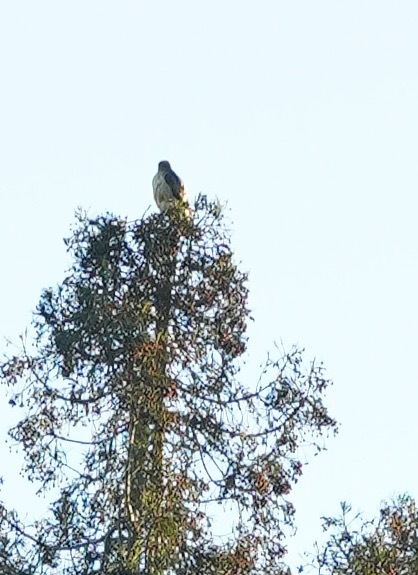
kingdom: Animalia
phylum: Chordata
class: Aves
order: Accipitriformes
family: Accipitridae
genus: Buteo
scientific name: Buteo jamaicensis
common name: Red-tailed hawk
